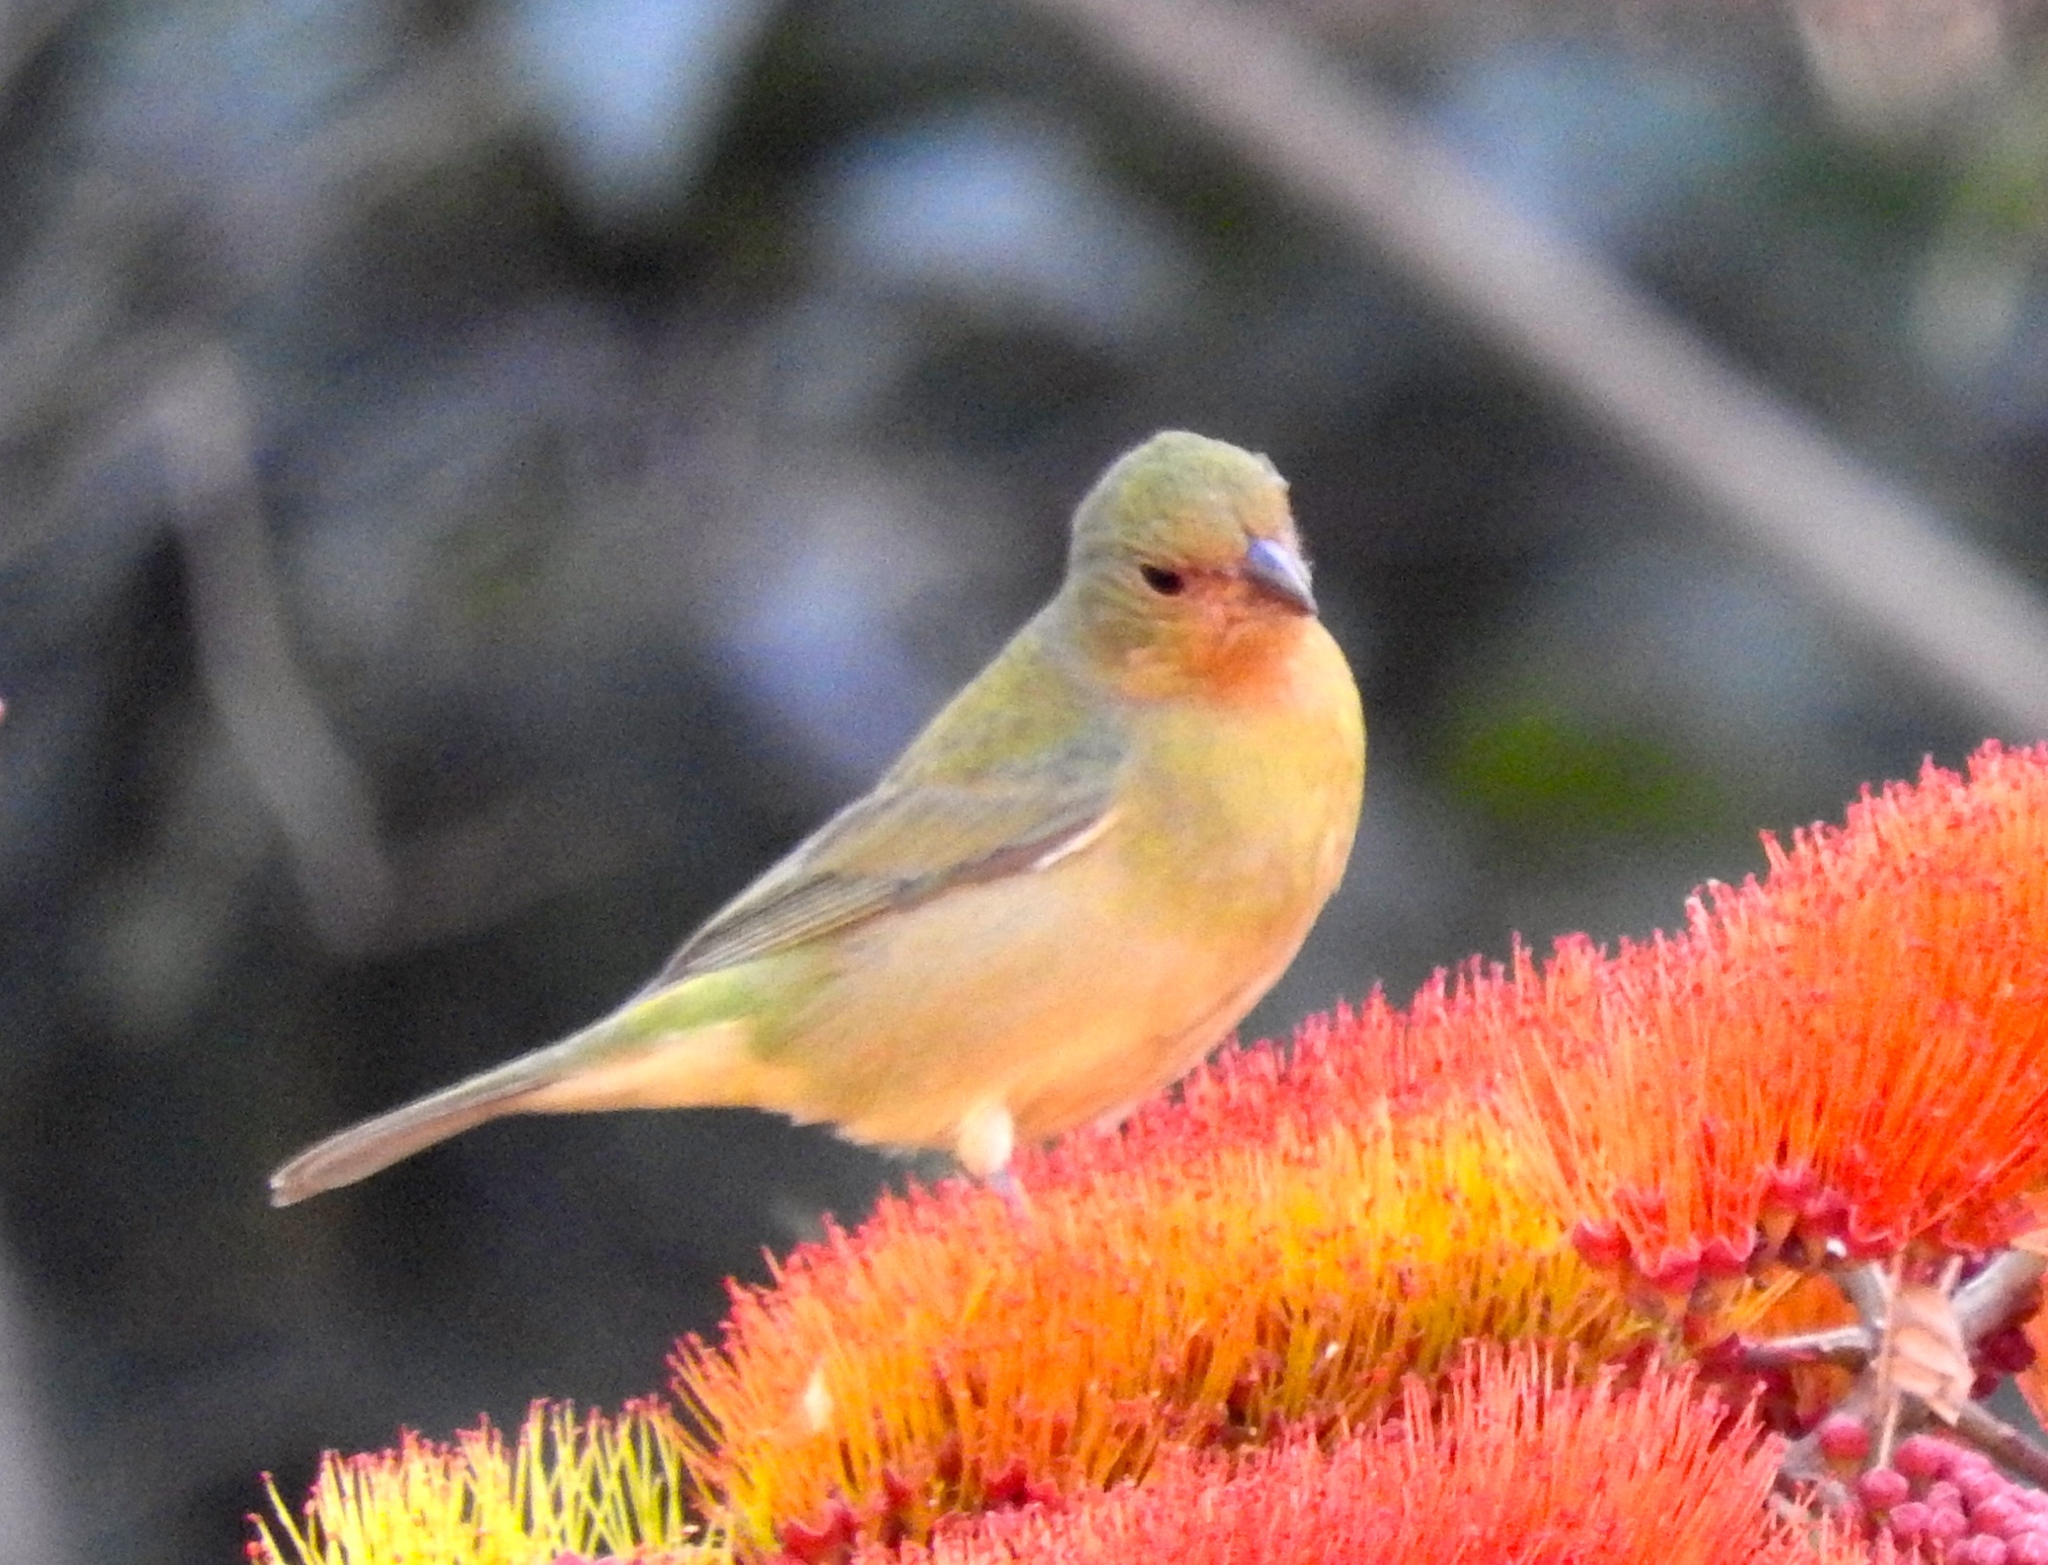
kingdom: Animalia
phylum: Chordata
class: Aves
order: Passeriformes
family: Cardinalidae
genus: Passerina
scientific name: Passerina ciris
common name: Painted bunting
